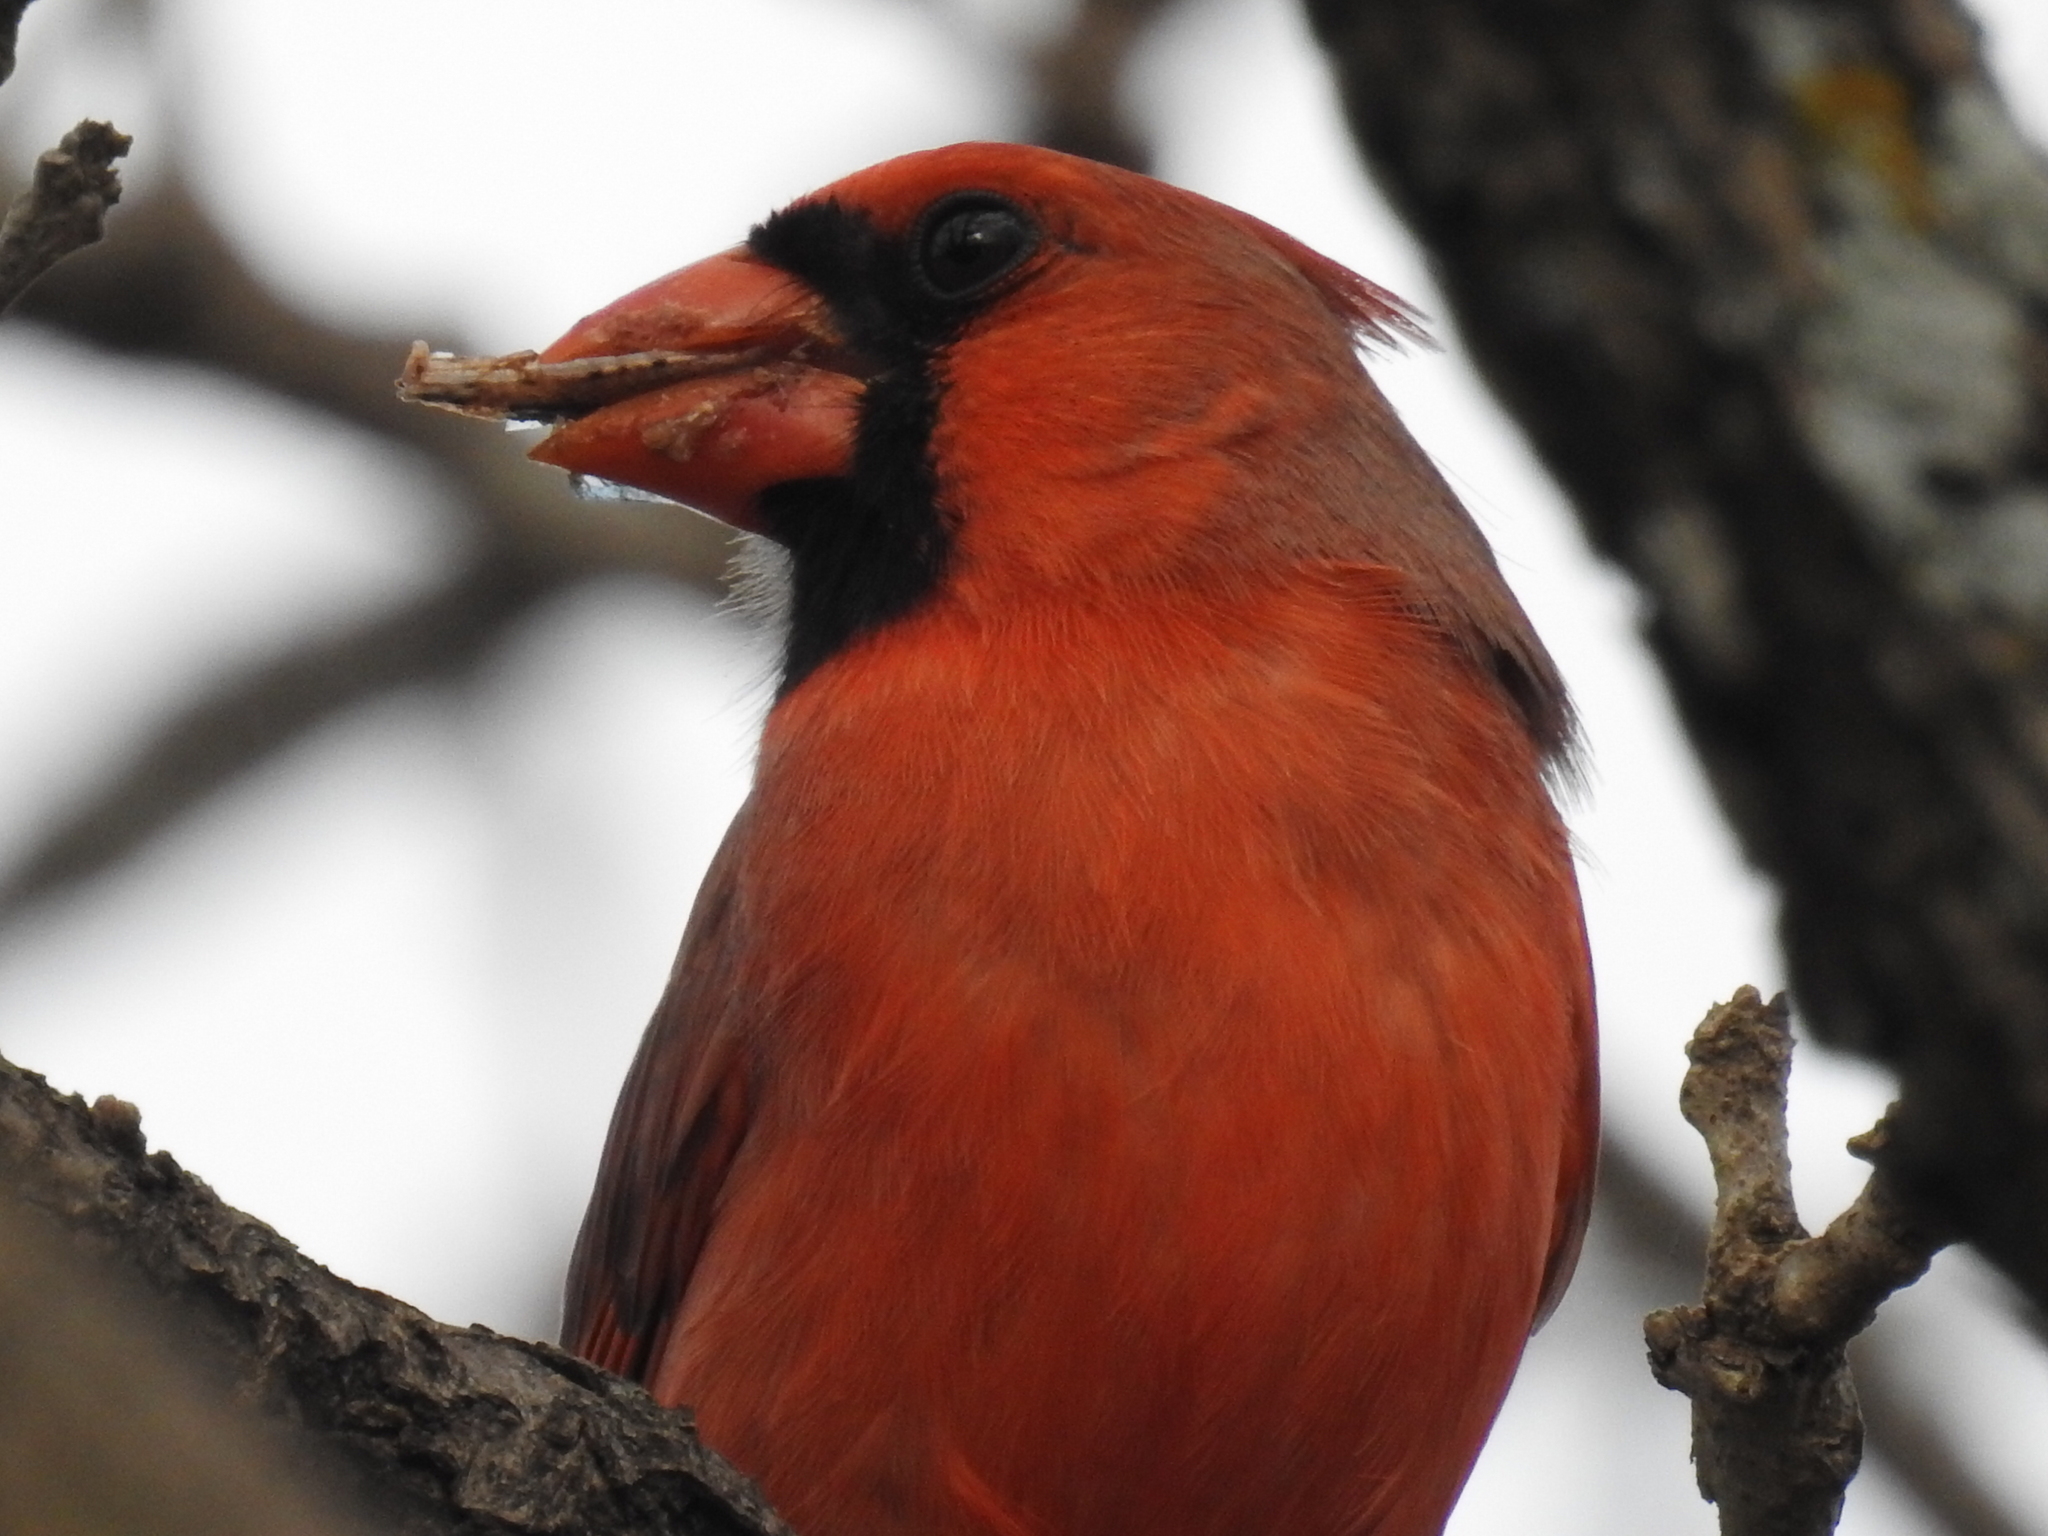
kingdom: Animalia
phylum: Chordata
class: Aves
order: Passeriformes
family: Cardinalidae
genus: Cardinalis
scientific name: Cardinalis cardinalis
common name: Northern cardinal
